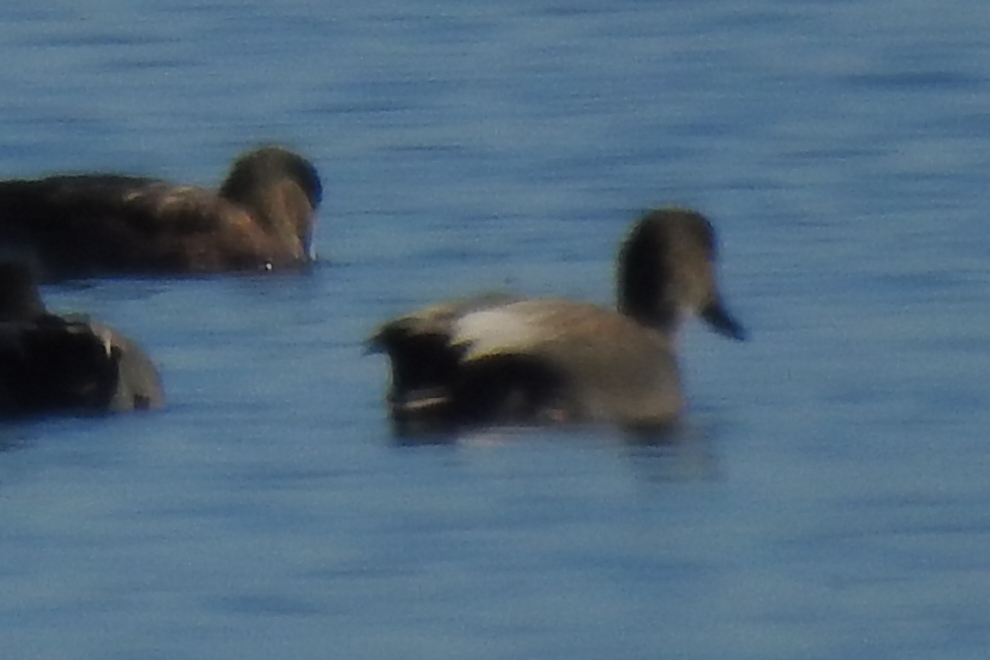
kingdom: Animalia
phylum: Chordata
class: Aves
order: Anseriformes
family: Anatidae
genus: Mareca
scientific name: Mareca strepera
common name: Gadwall
